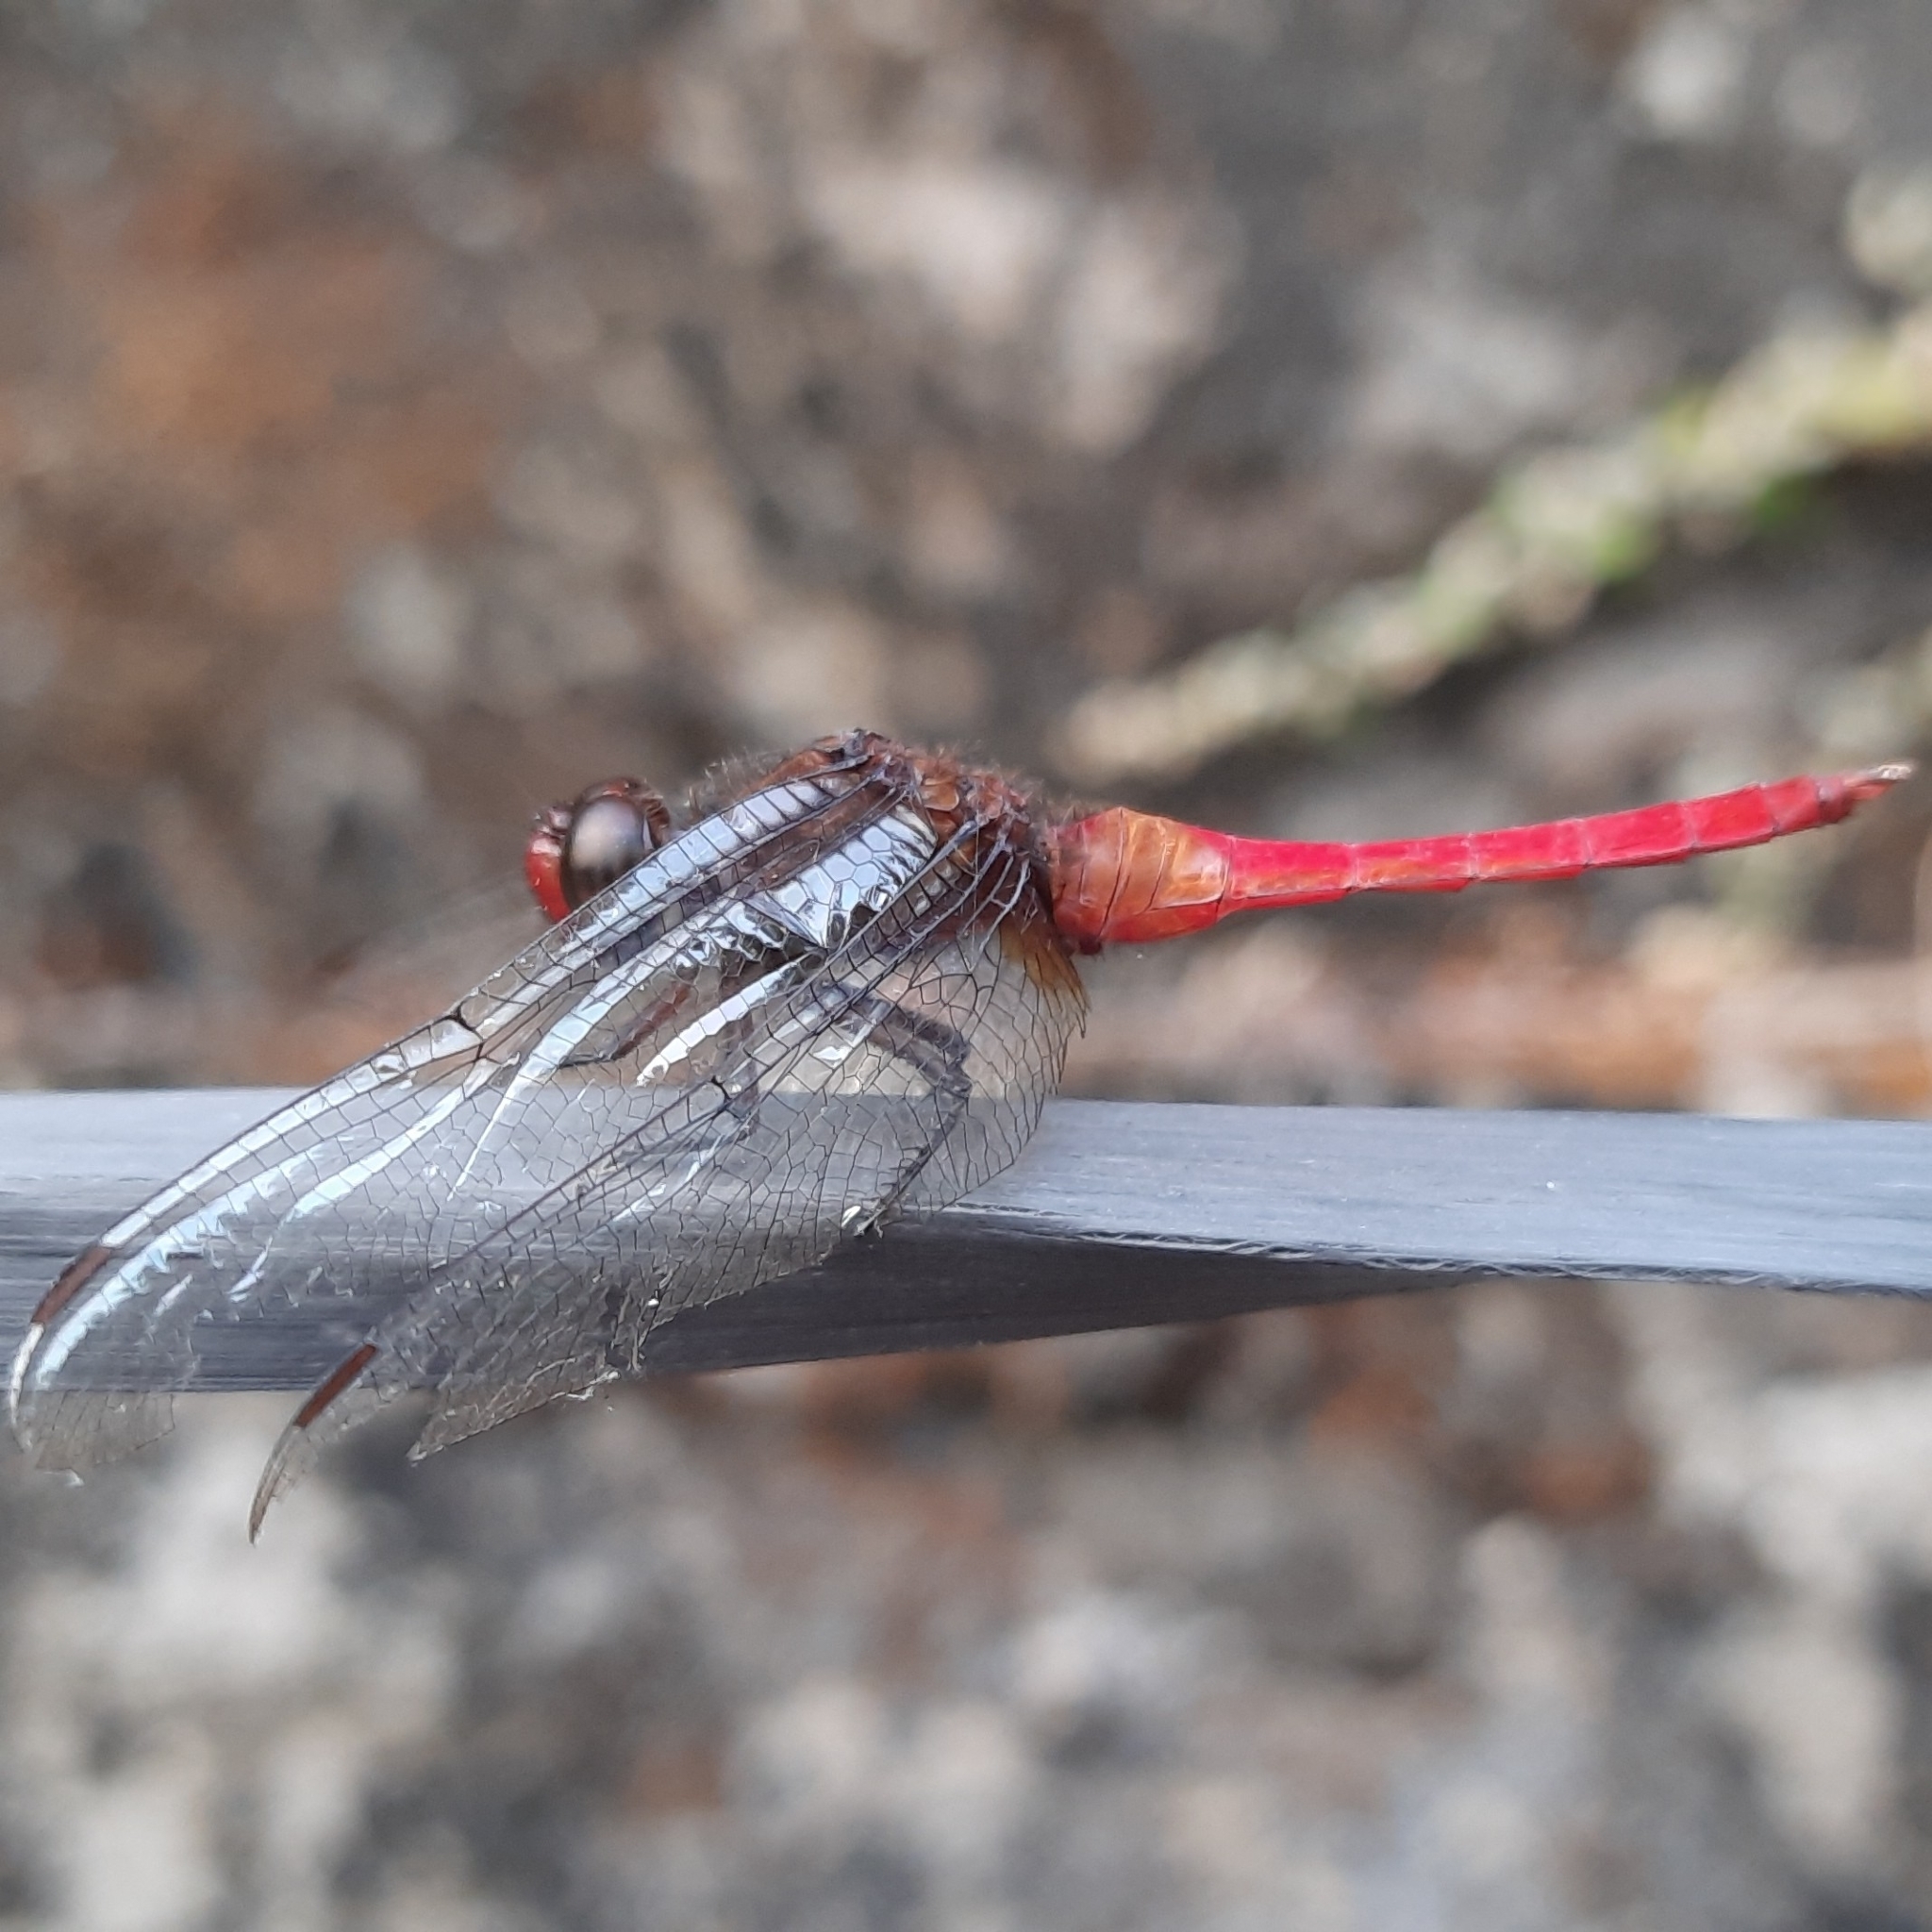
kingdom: Animalia
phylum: Arthropoda
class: Insecta
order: Odonata
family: Libellulidae
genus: Orthetrum
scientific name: Orthetrum chrysis
